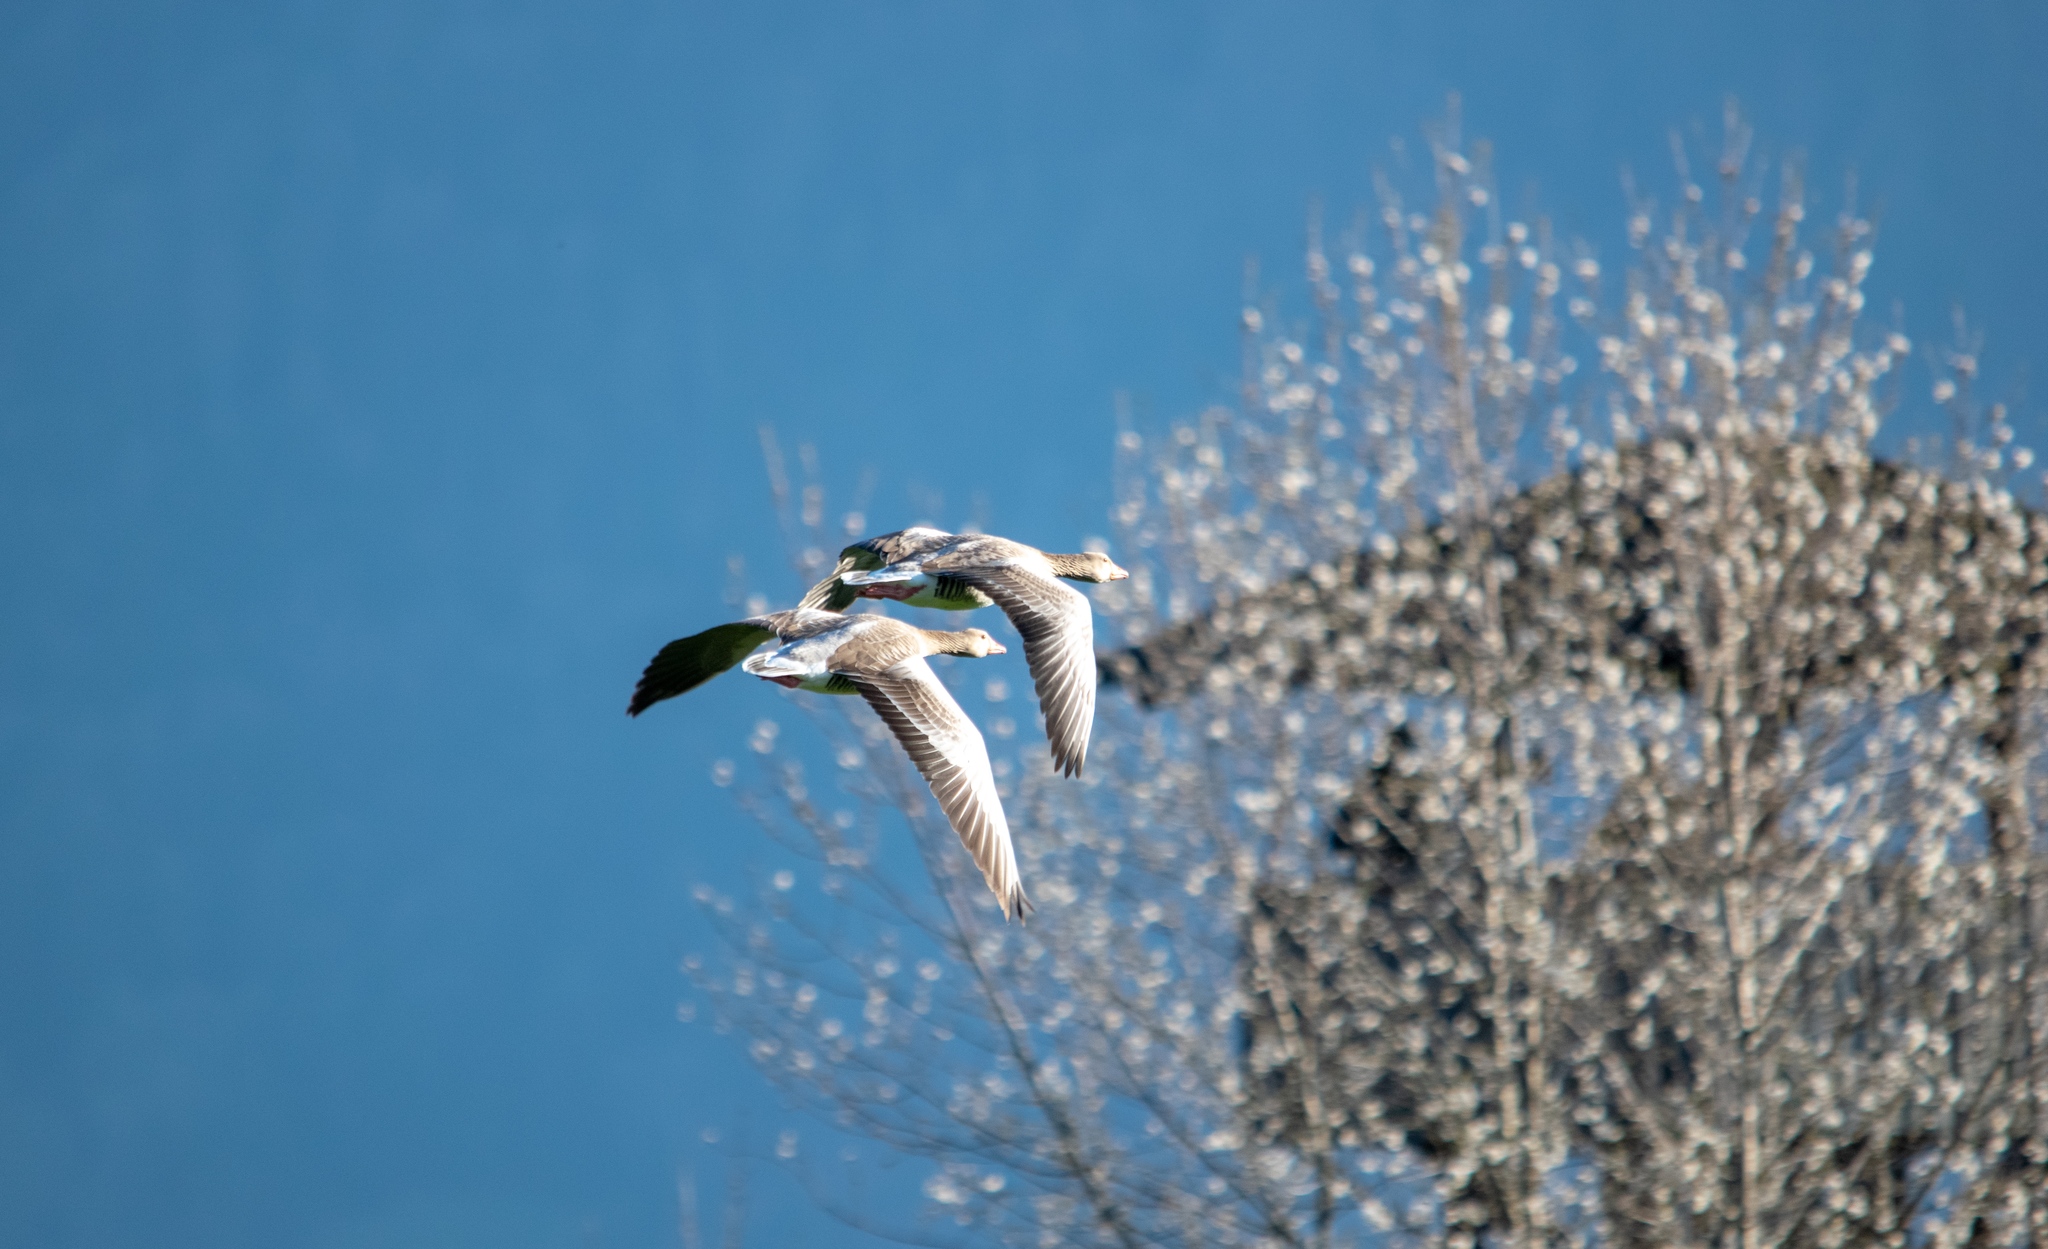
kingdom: Animalia
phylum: Chordata
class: Aves
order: Anseriformes
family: Anatidae
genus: Anser
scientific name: Anser anser
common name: Greylag goose
